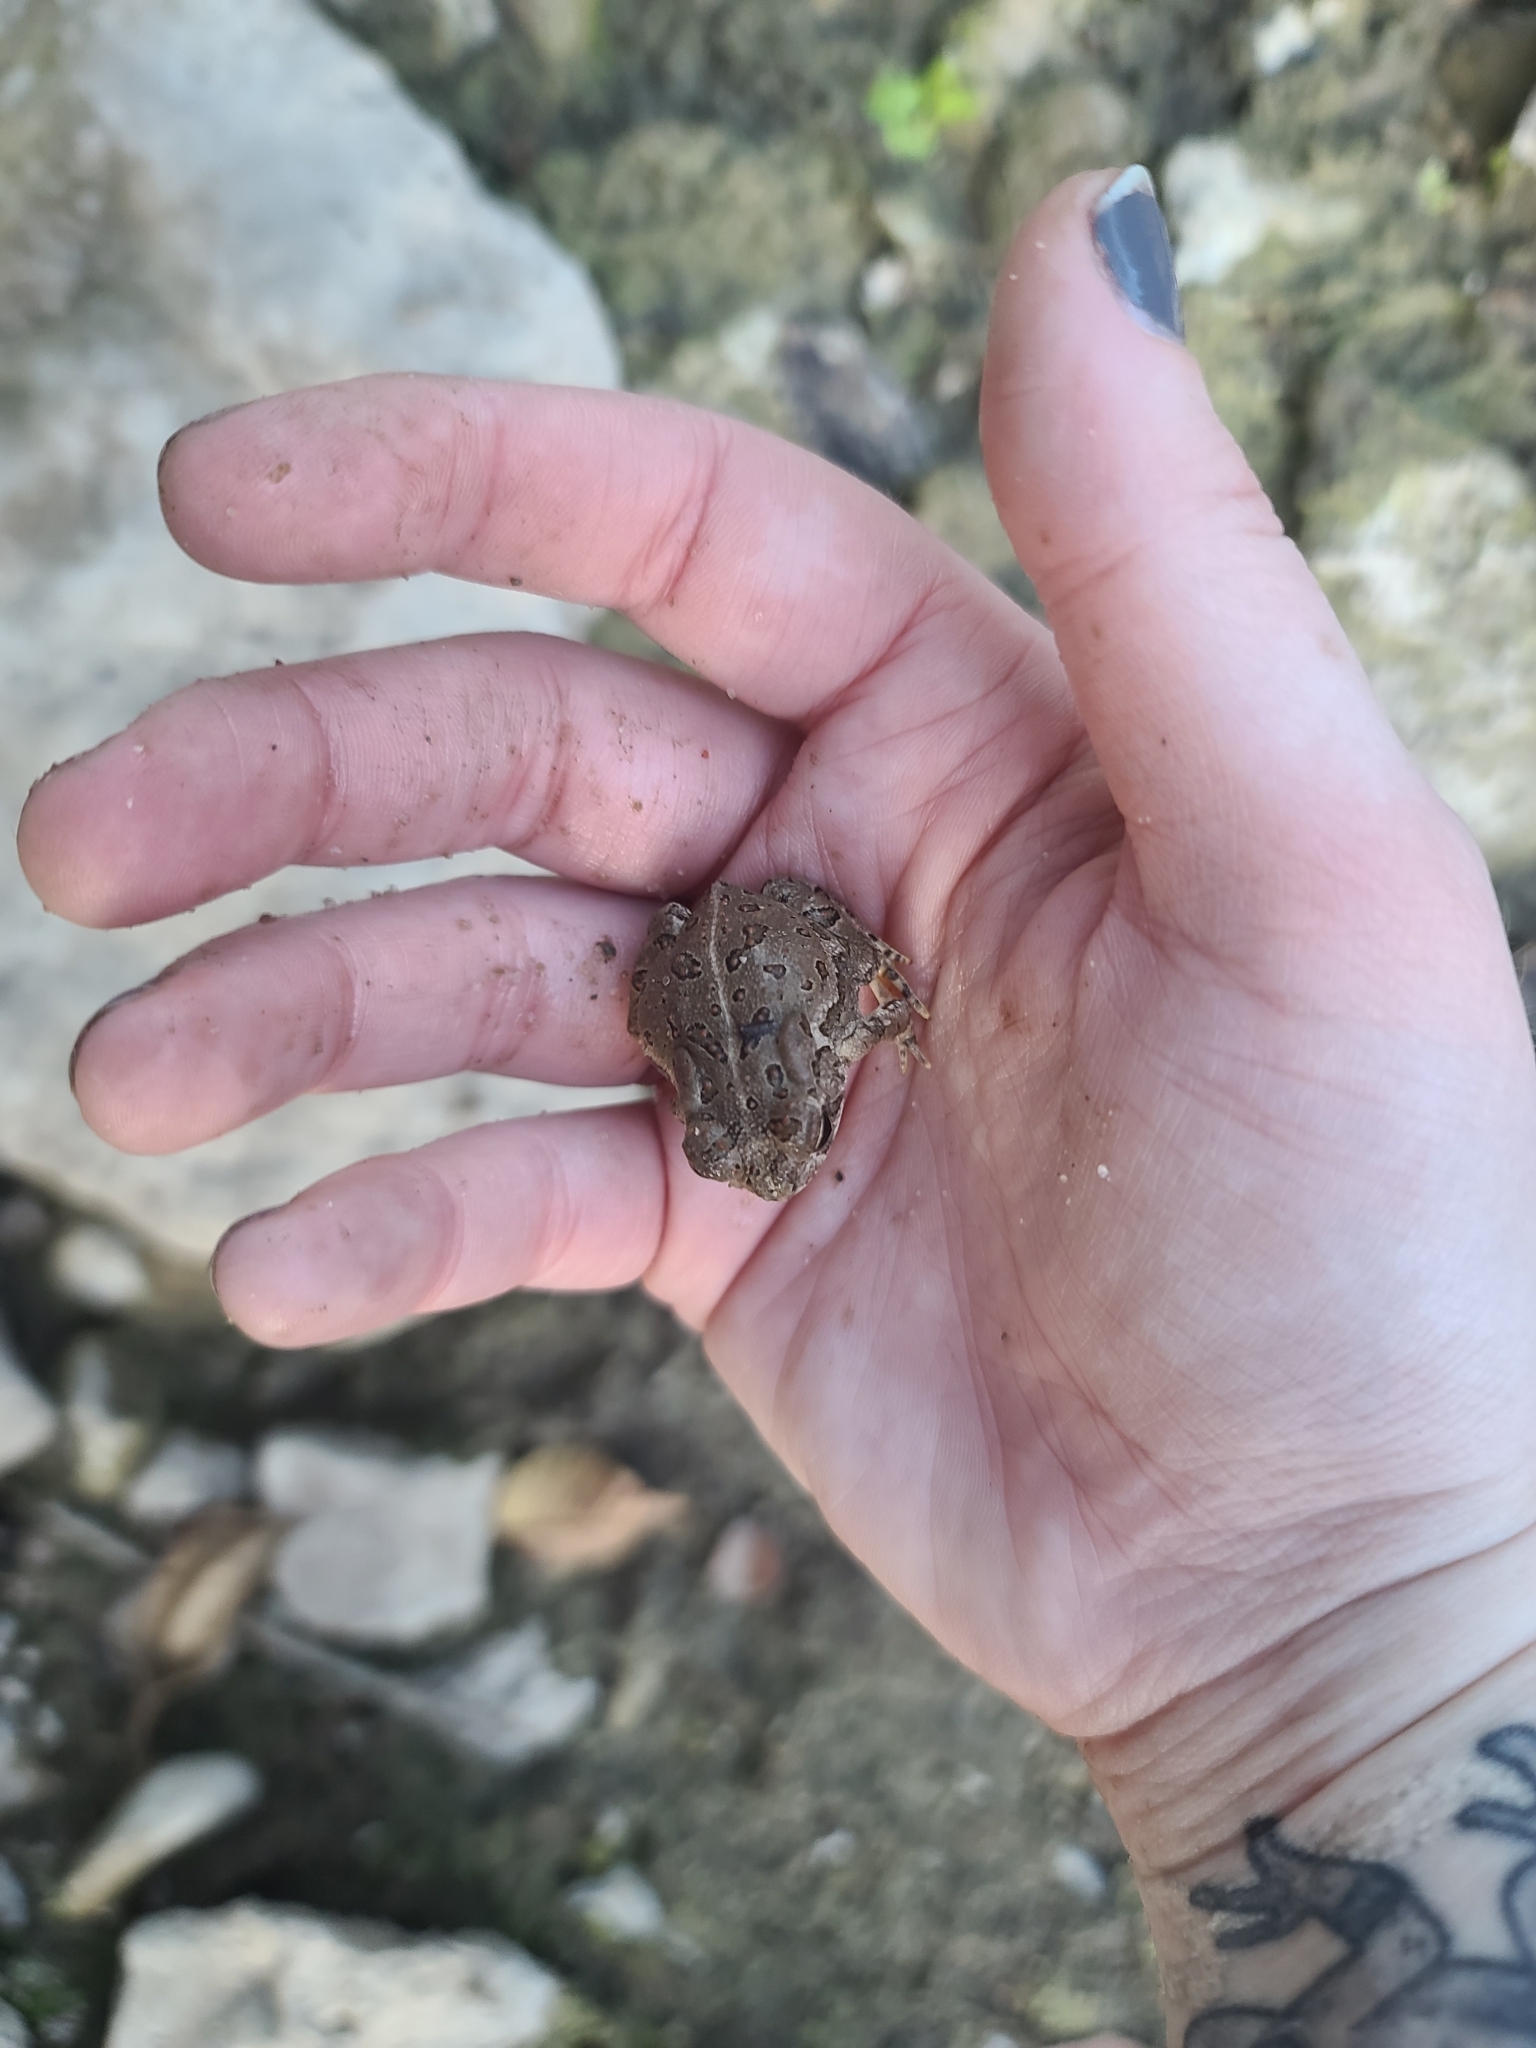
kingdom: Animalia
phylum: Chordata
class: Amphibia
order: Anura
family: Bufonidae
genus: Anaxyrus
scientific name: Anaxyrus woodhousii
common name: Woodhouse's toad
